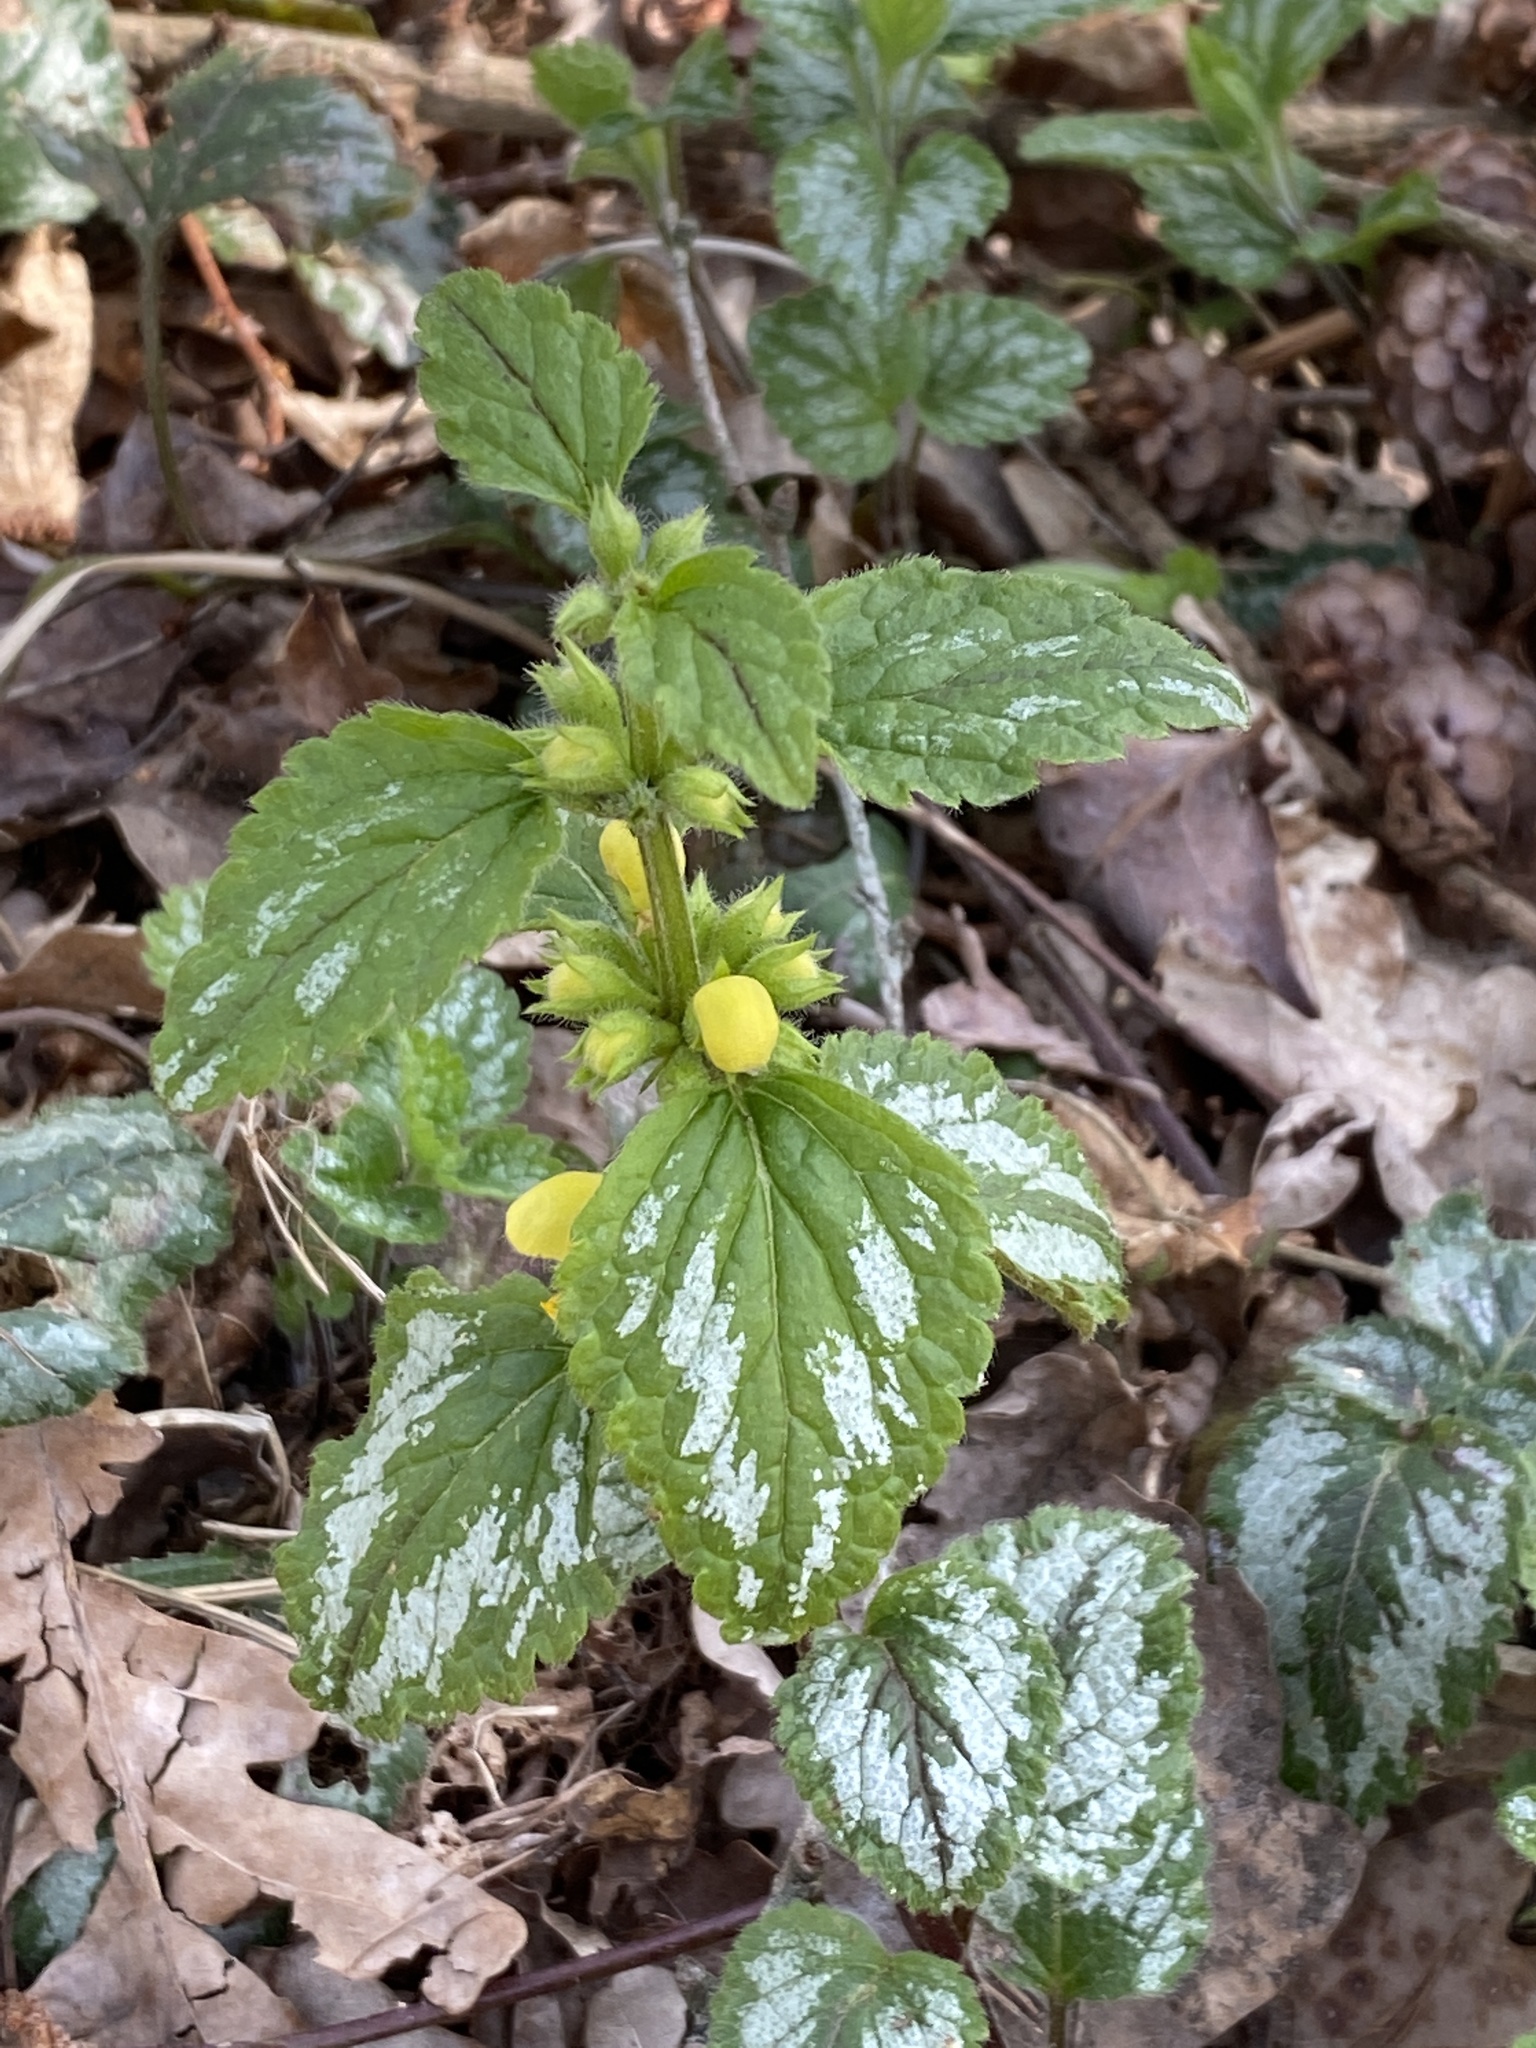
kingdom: Plantae
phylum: Tracheophyta
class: Magnoliopsida
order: Lamiales
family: Lamiaceae
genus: Lamium
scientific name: Lamium galeobdolon
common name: Yellow archangel
